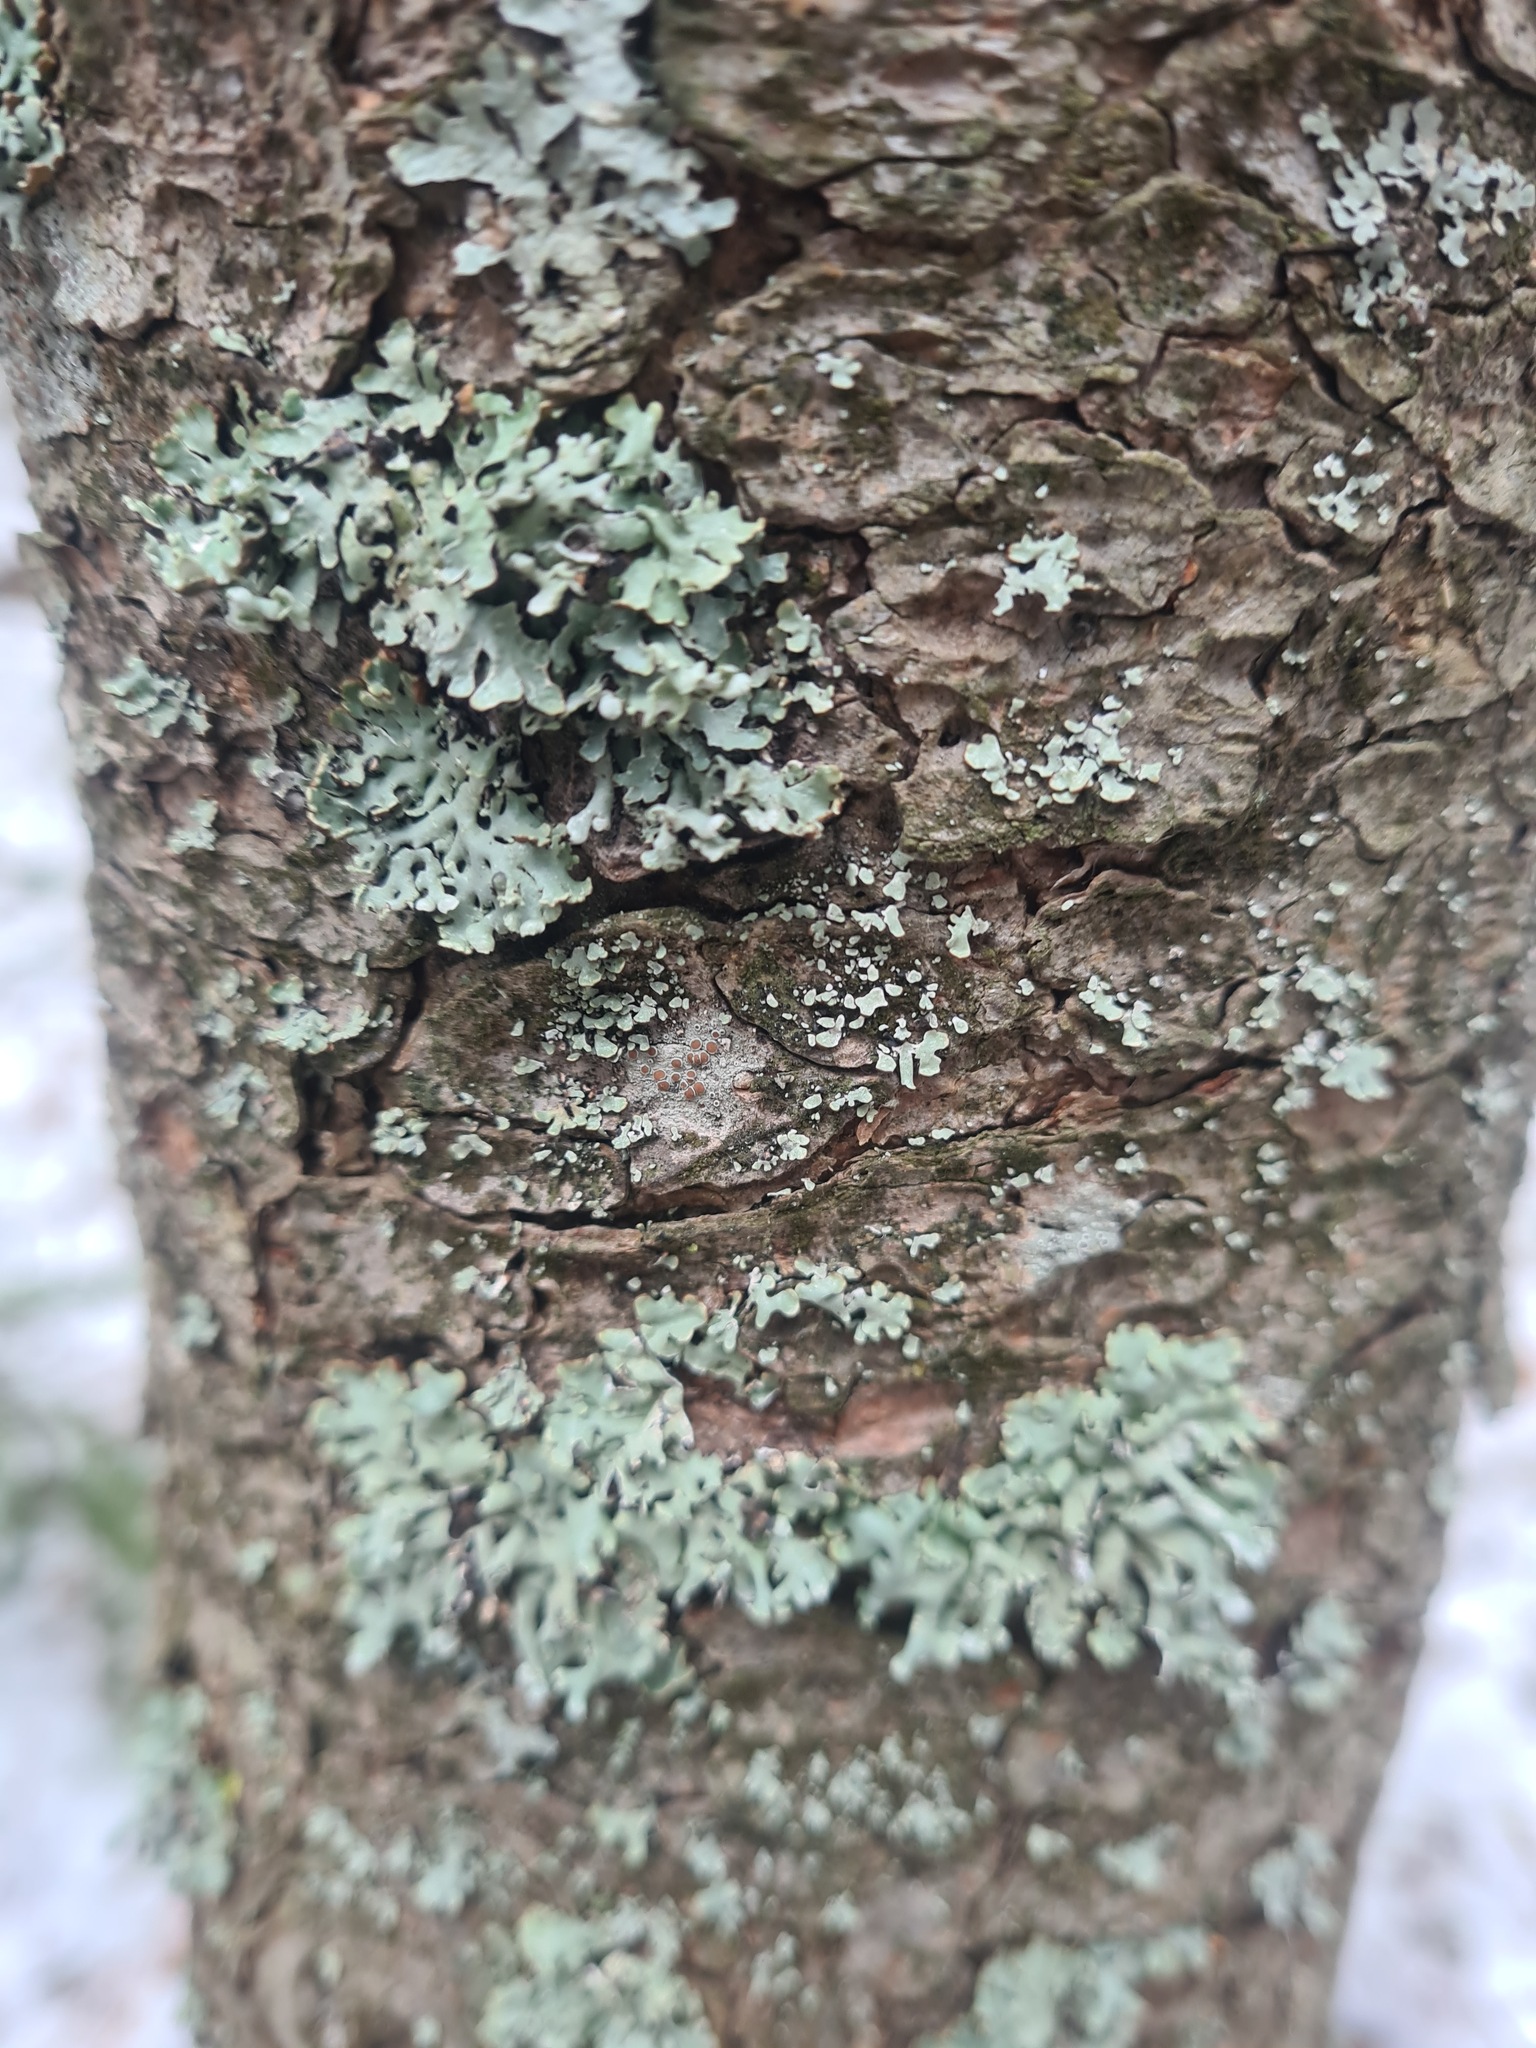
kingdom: Fungi
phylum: Ascomycota
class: Lecanoromycetes
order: Lecanorales
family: Parmeliaceae
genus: Hypogymnia
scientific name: Hypogymnia physodes
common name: Dark crottle
